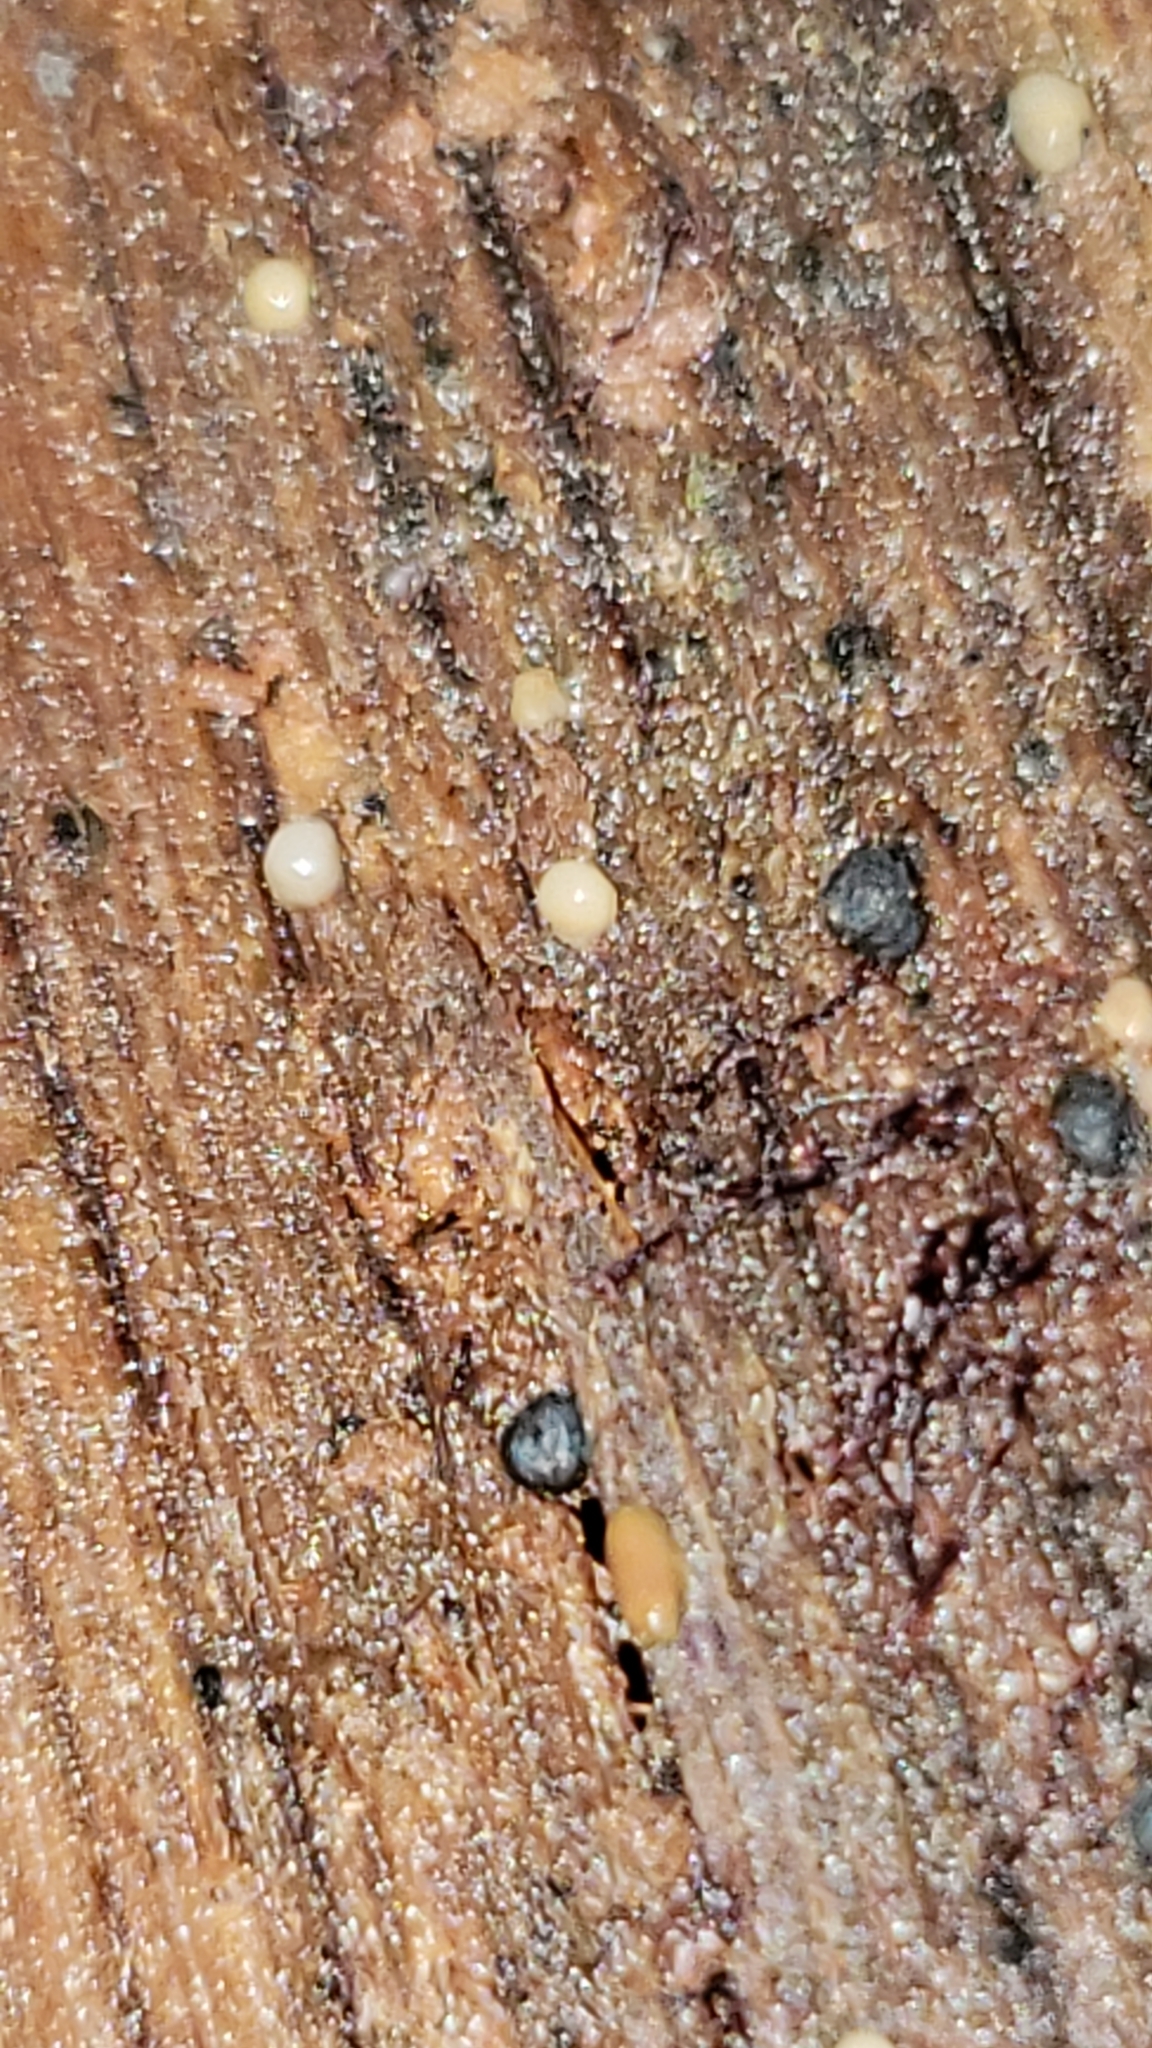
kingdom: Fungi
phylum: Basidiomycota
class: Atractiellomycetes
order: Atractiellales
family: Phleogenaceae
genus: Helicogloea
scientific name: Helicogloea compressa
